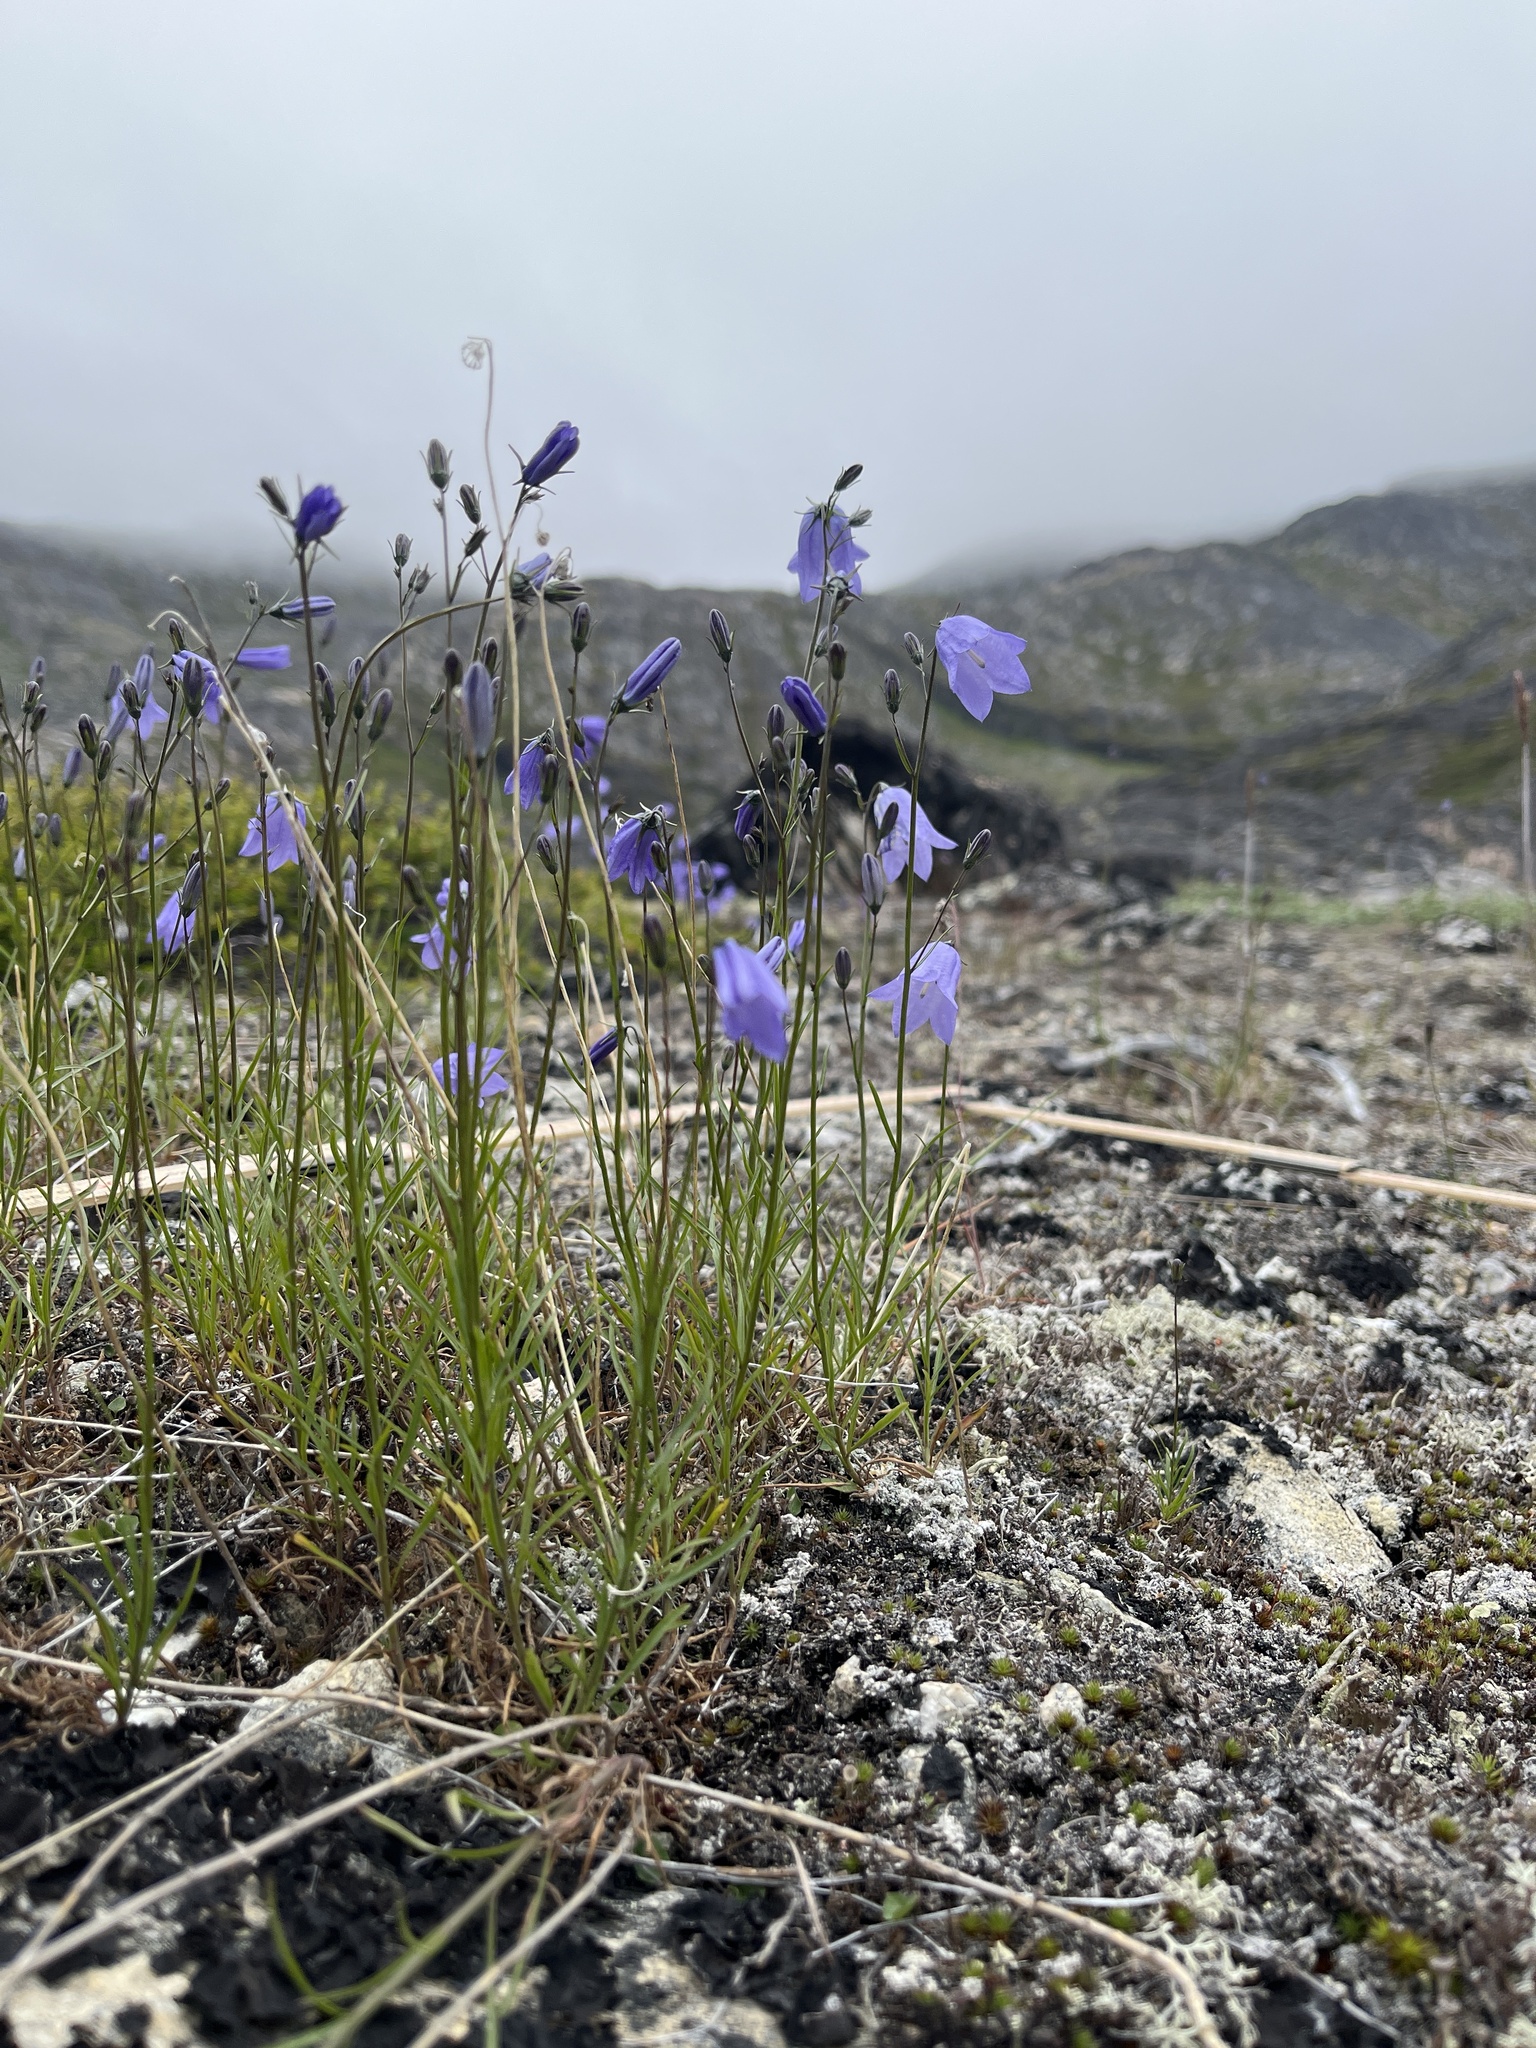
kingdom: Plantae
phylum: Tracheophyta
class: Magnoliopsida
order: Asterales
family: Campanulaceae
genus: Campanula
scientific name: Campanula giesekiana
